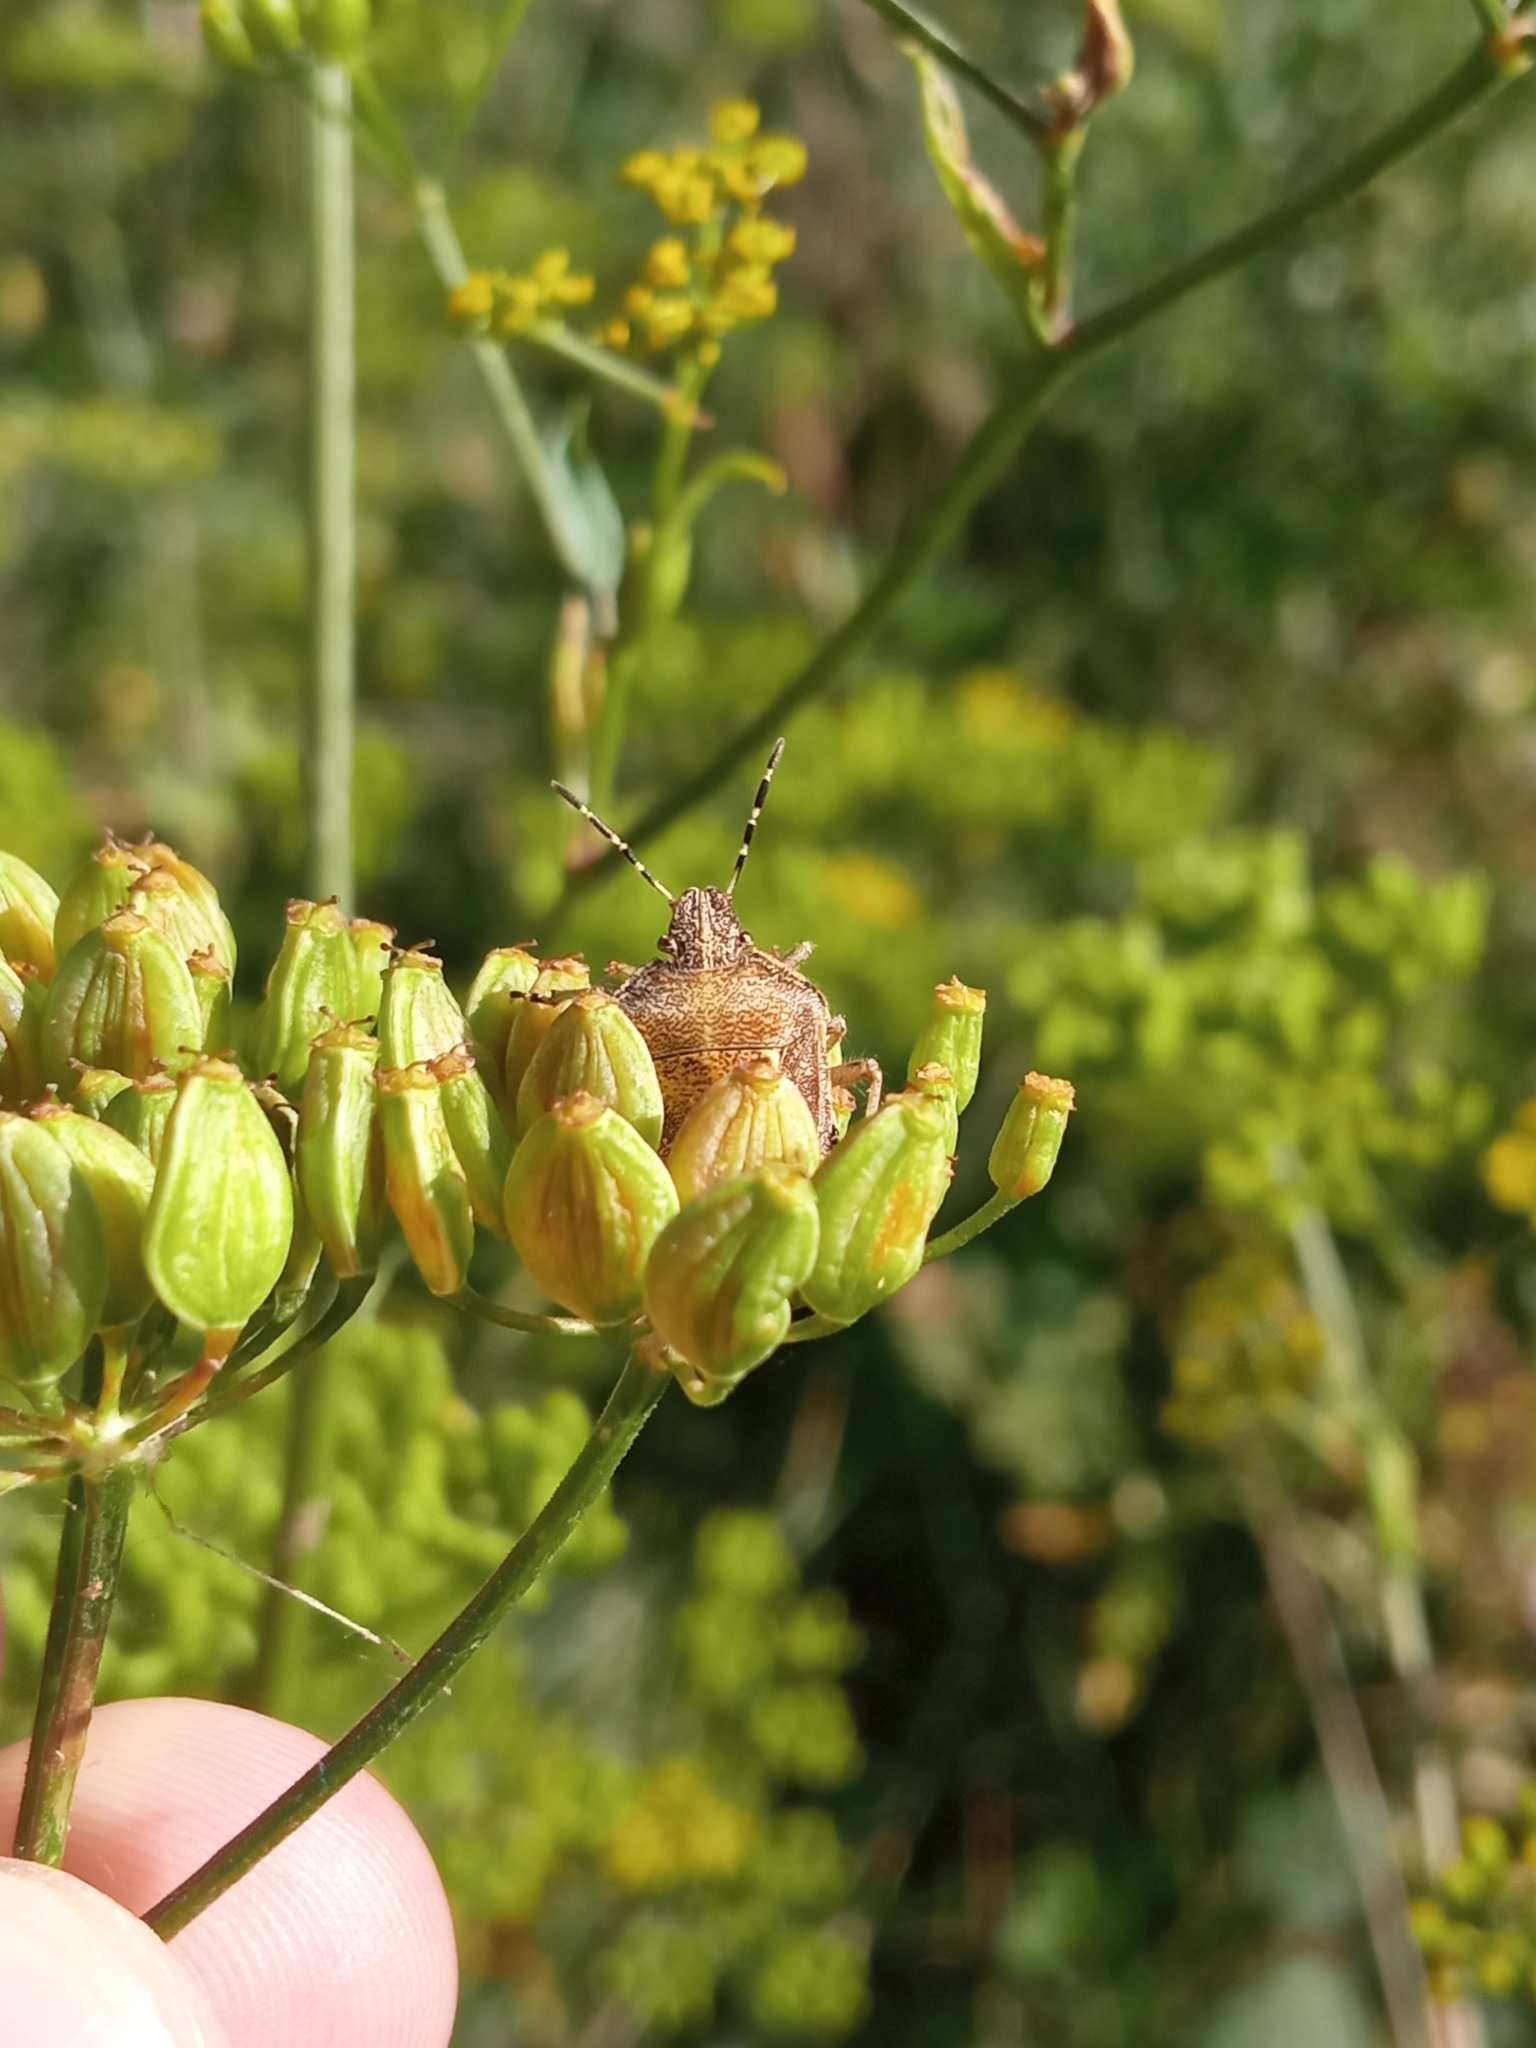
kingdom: Animalia
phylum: Arthropoda
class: Insecta
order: Hemiptera
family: Pentatomidae
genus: Dolycoris
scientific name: Dolycoris baccarum
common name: Sloe bug
